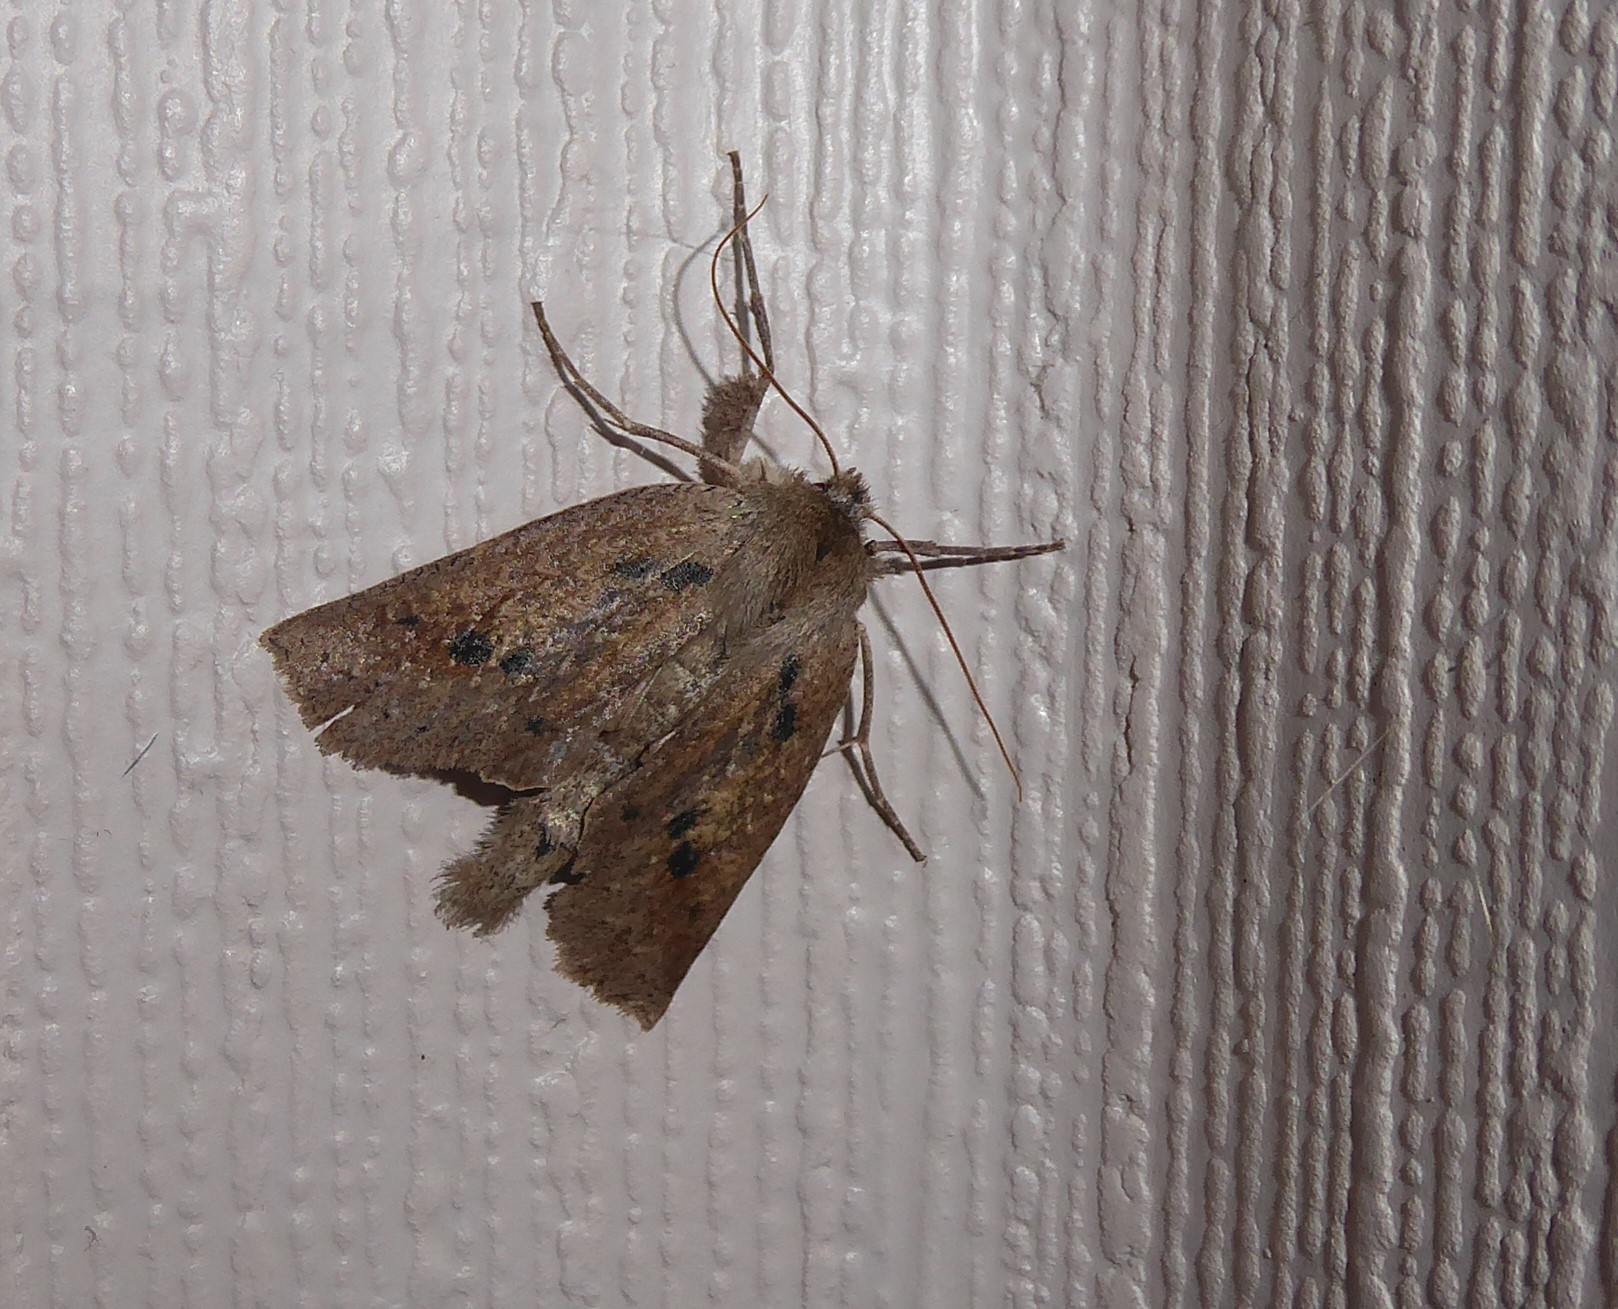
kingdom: Animalia
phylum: Arthropoda
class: Insecta
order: Lepidoptera
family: Geometridae
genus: Declana
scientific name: Declana leptomera
